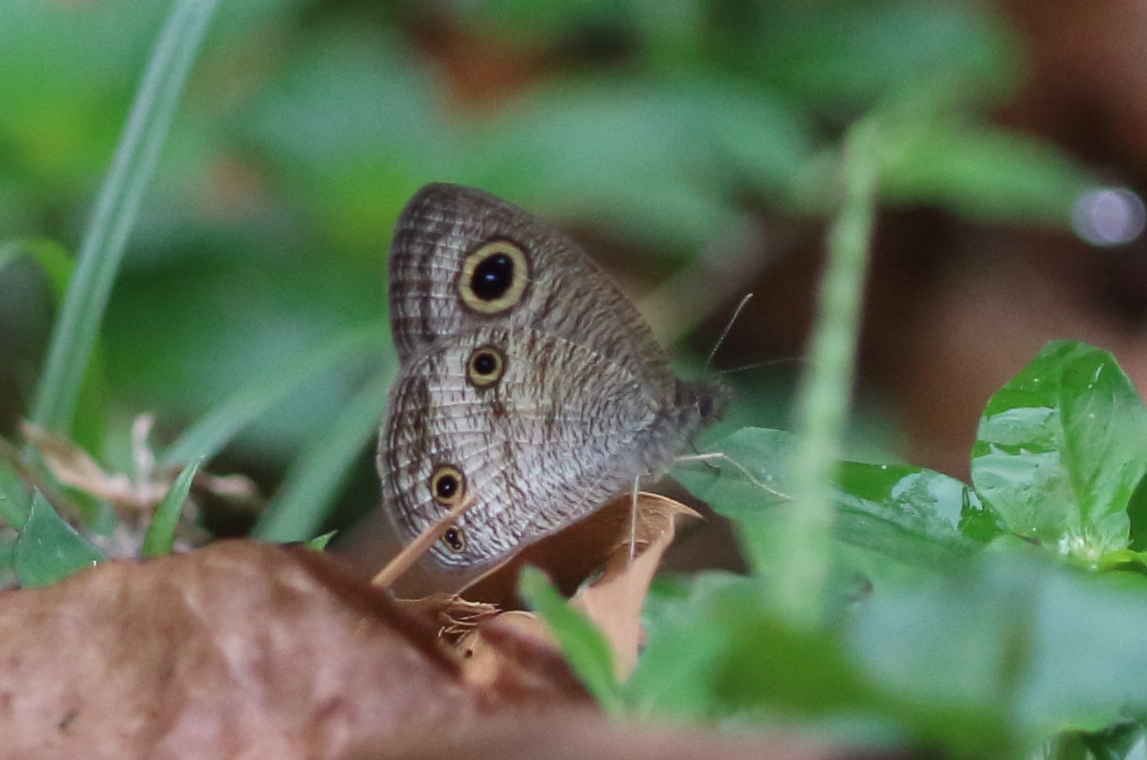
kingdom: Animalia
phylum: Arthropoda
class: Insecta
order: Lepidoptera
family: Nymphalidae
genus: Ypthima
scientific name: Ypthima pandocus
